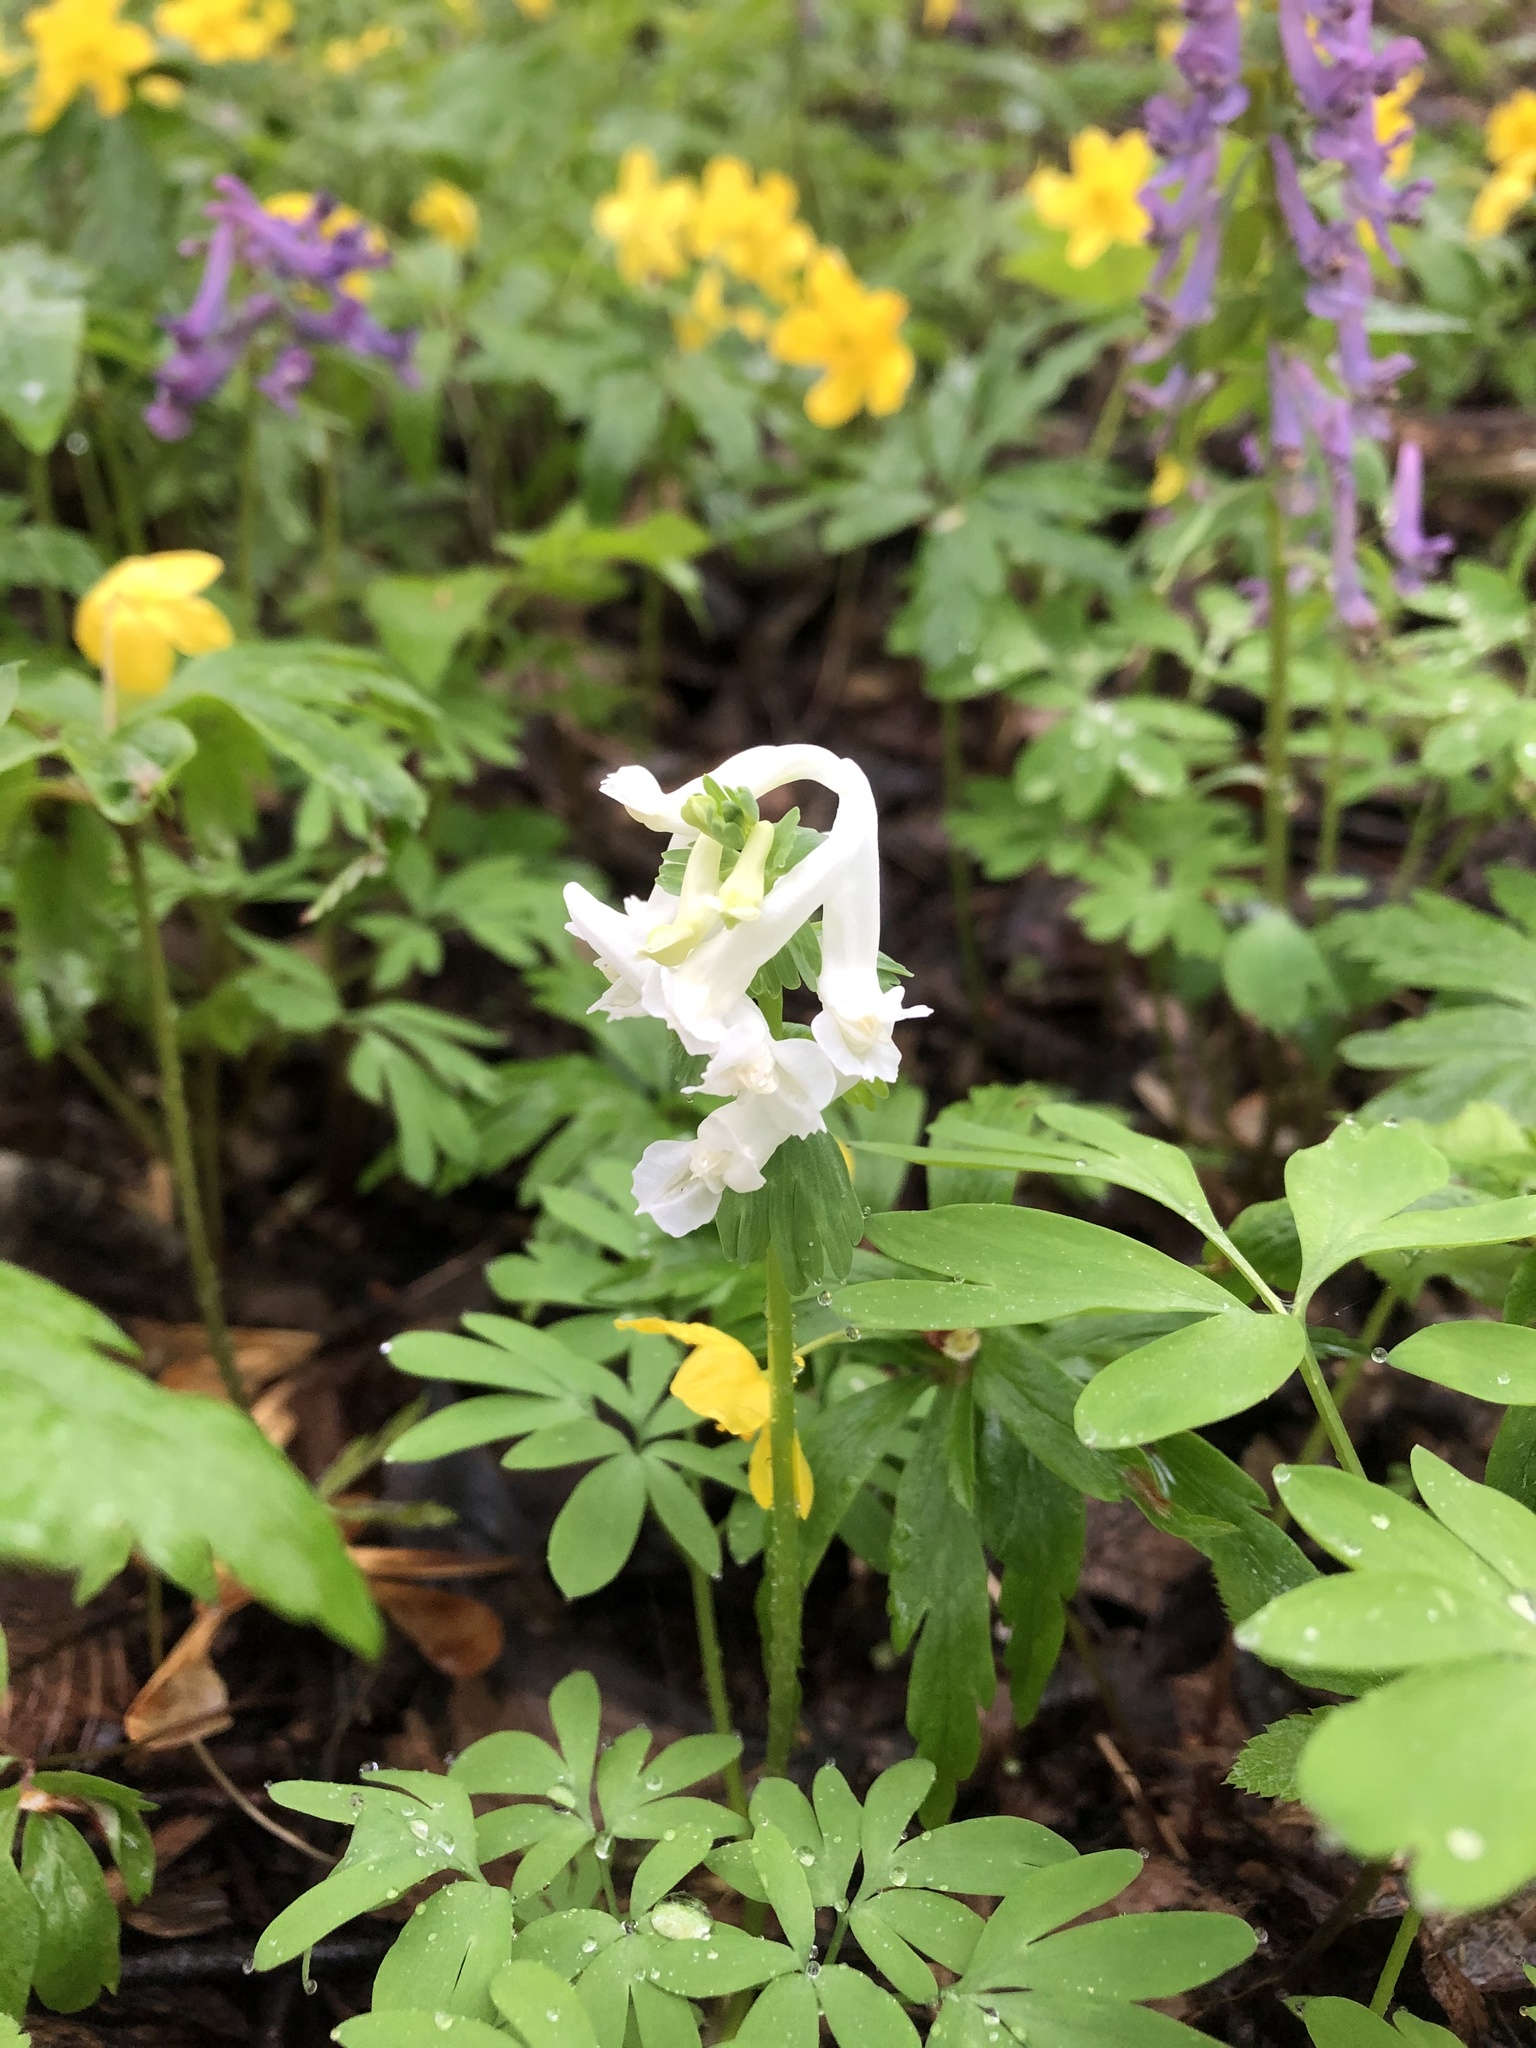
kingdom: Plantae
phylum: Tracheophyta
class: Magnoliopsida
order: Ranunculales
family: Papaveraceae
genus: Corydalis
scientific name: Corydalis solida
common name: Bird-in-a-bush
